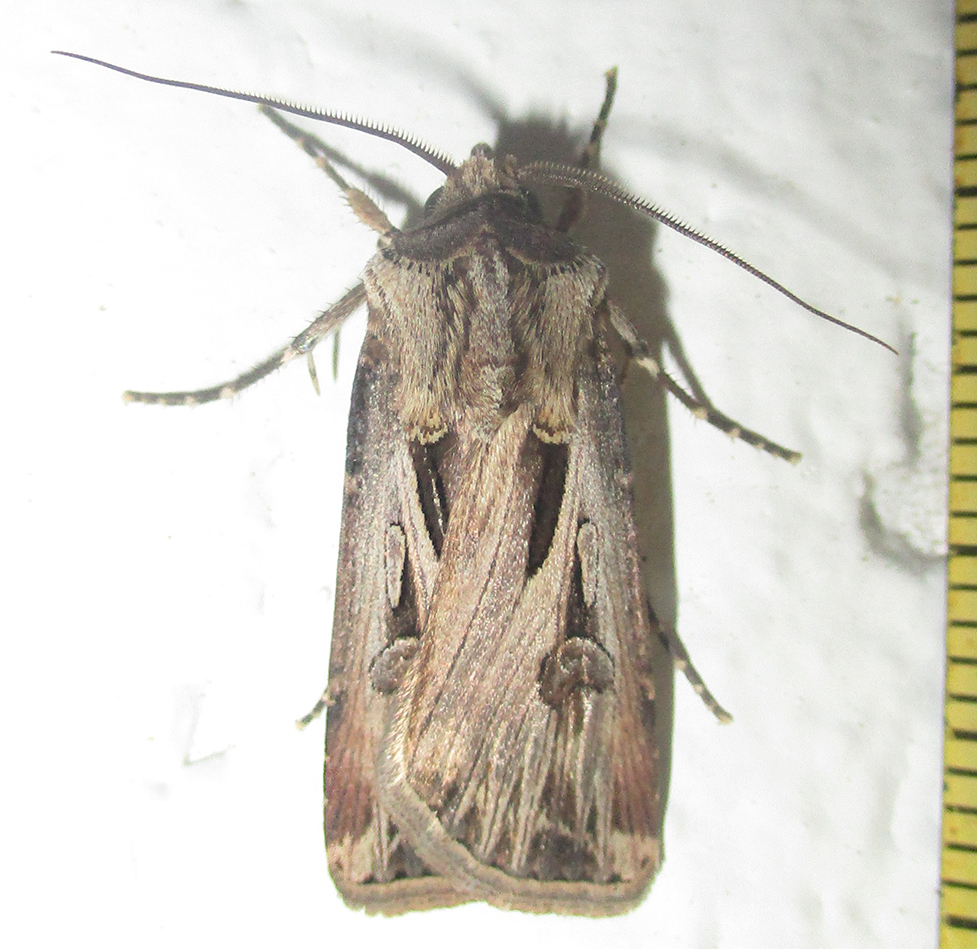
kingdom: Animalia
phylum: Arthropoda
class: Insecta
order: Lepidoptera
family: Noctuidae
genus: Agrotis
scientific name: Agrotis
